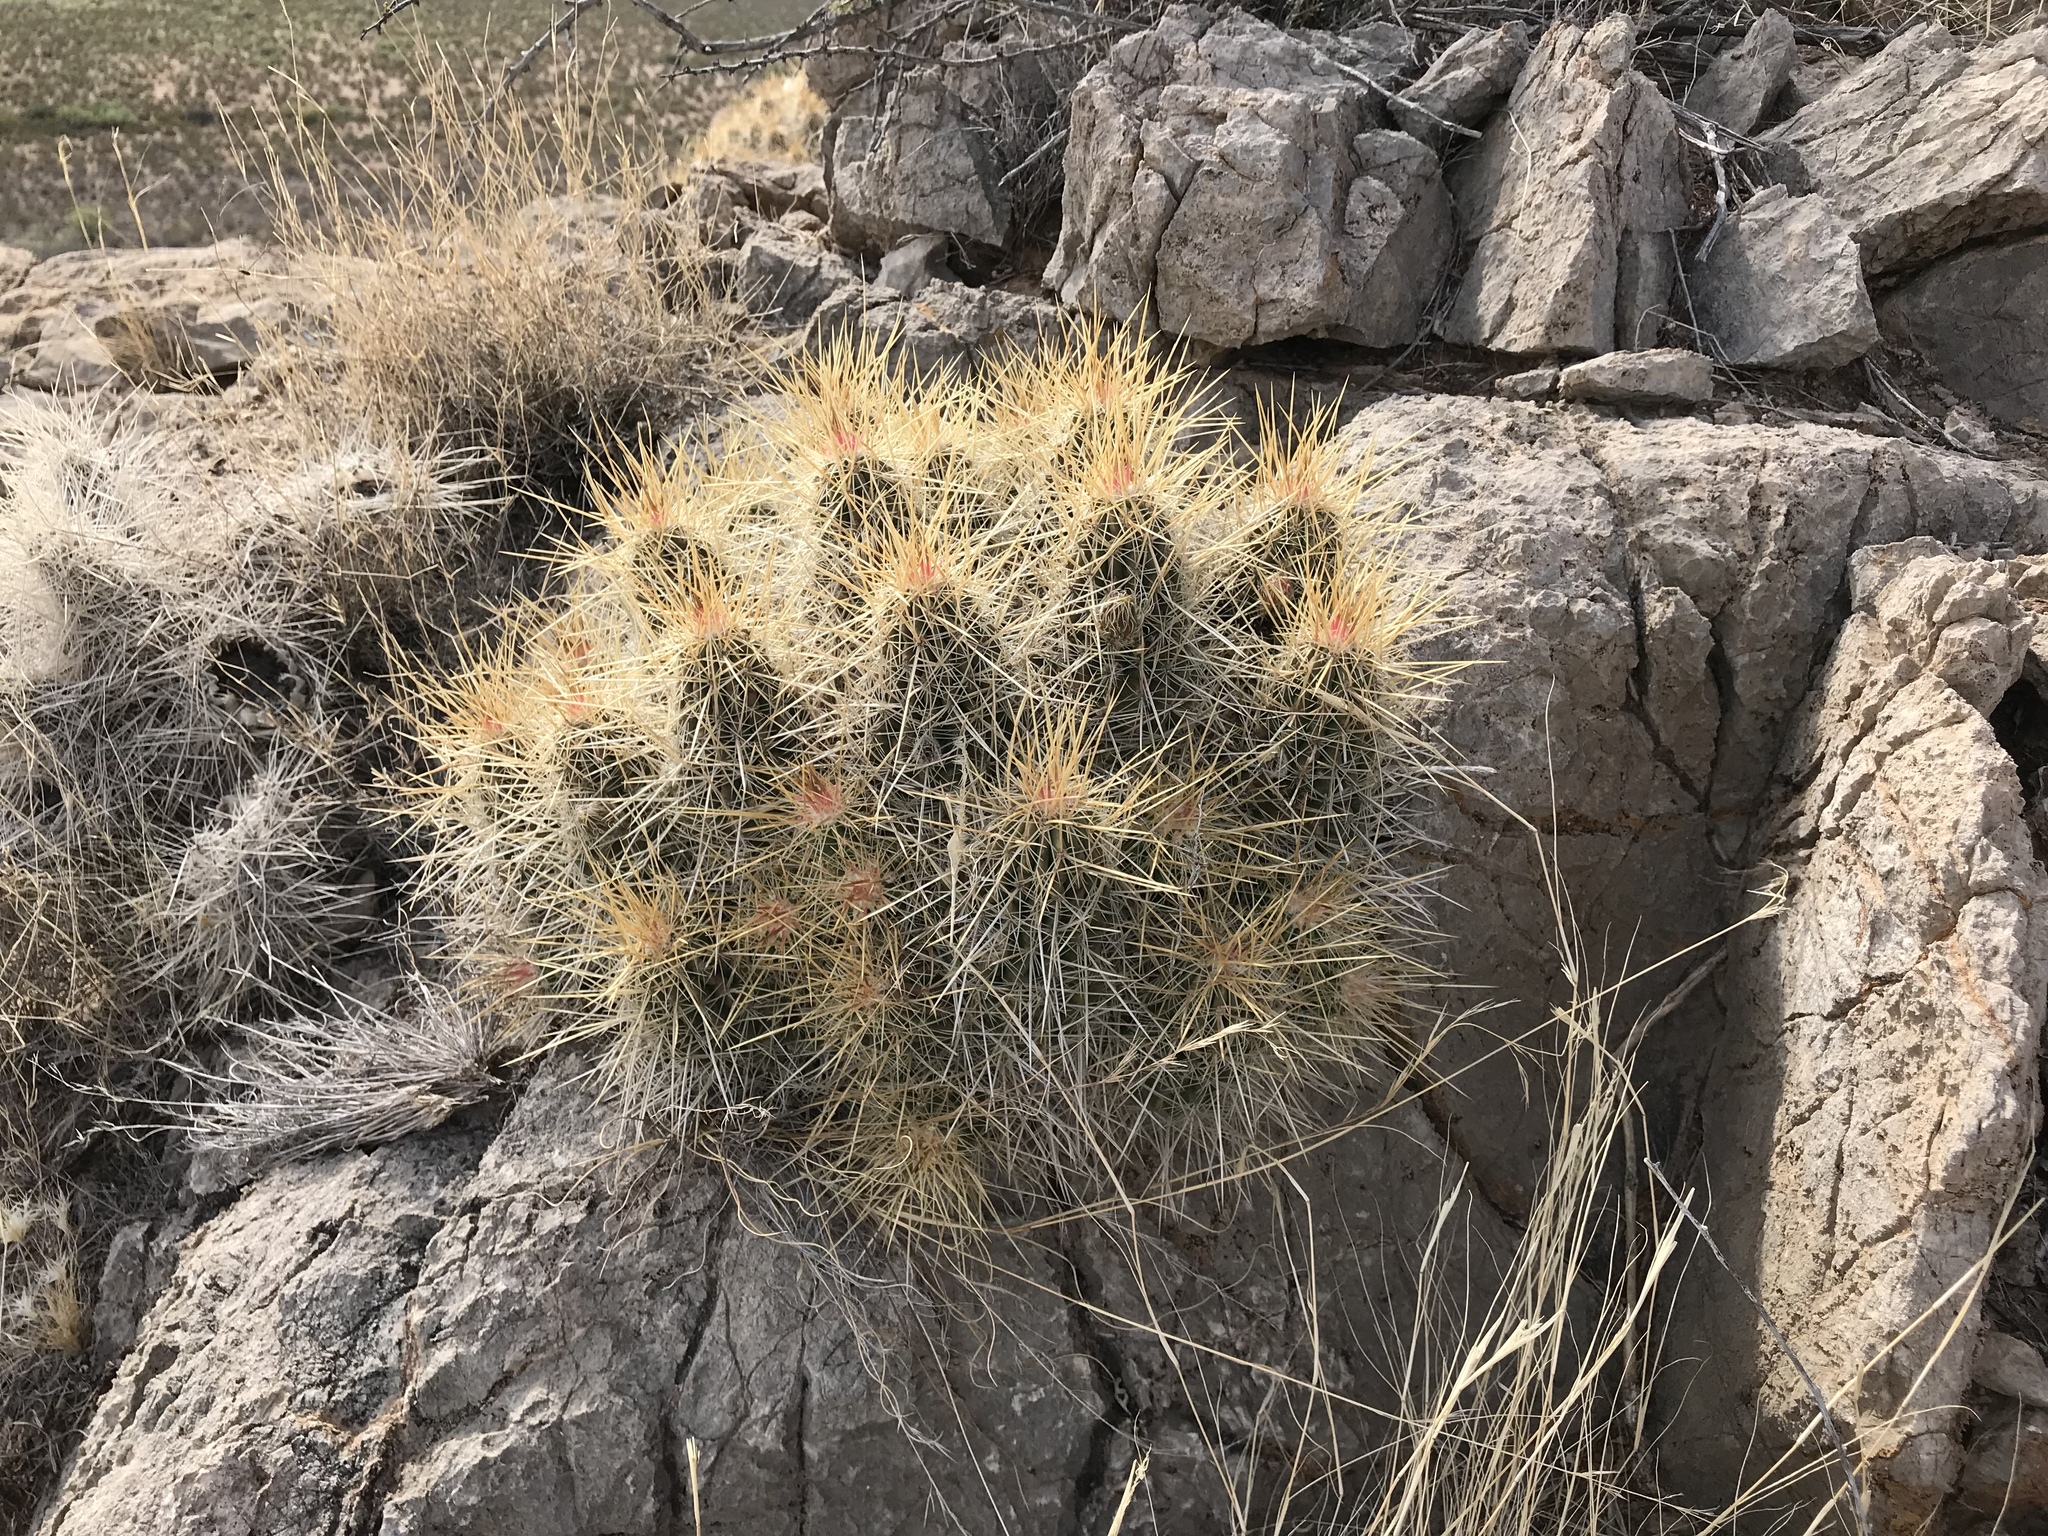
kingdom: Plantae
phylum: Tracheophyta
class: Magnoliopsida
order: Caryophyllales
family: Cactaceae
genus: Echinocereus
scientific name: Echinocereus stramineus
